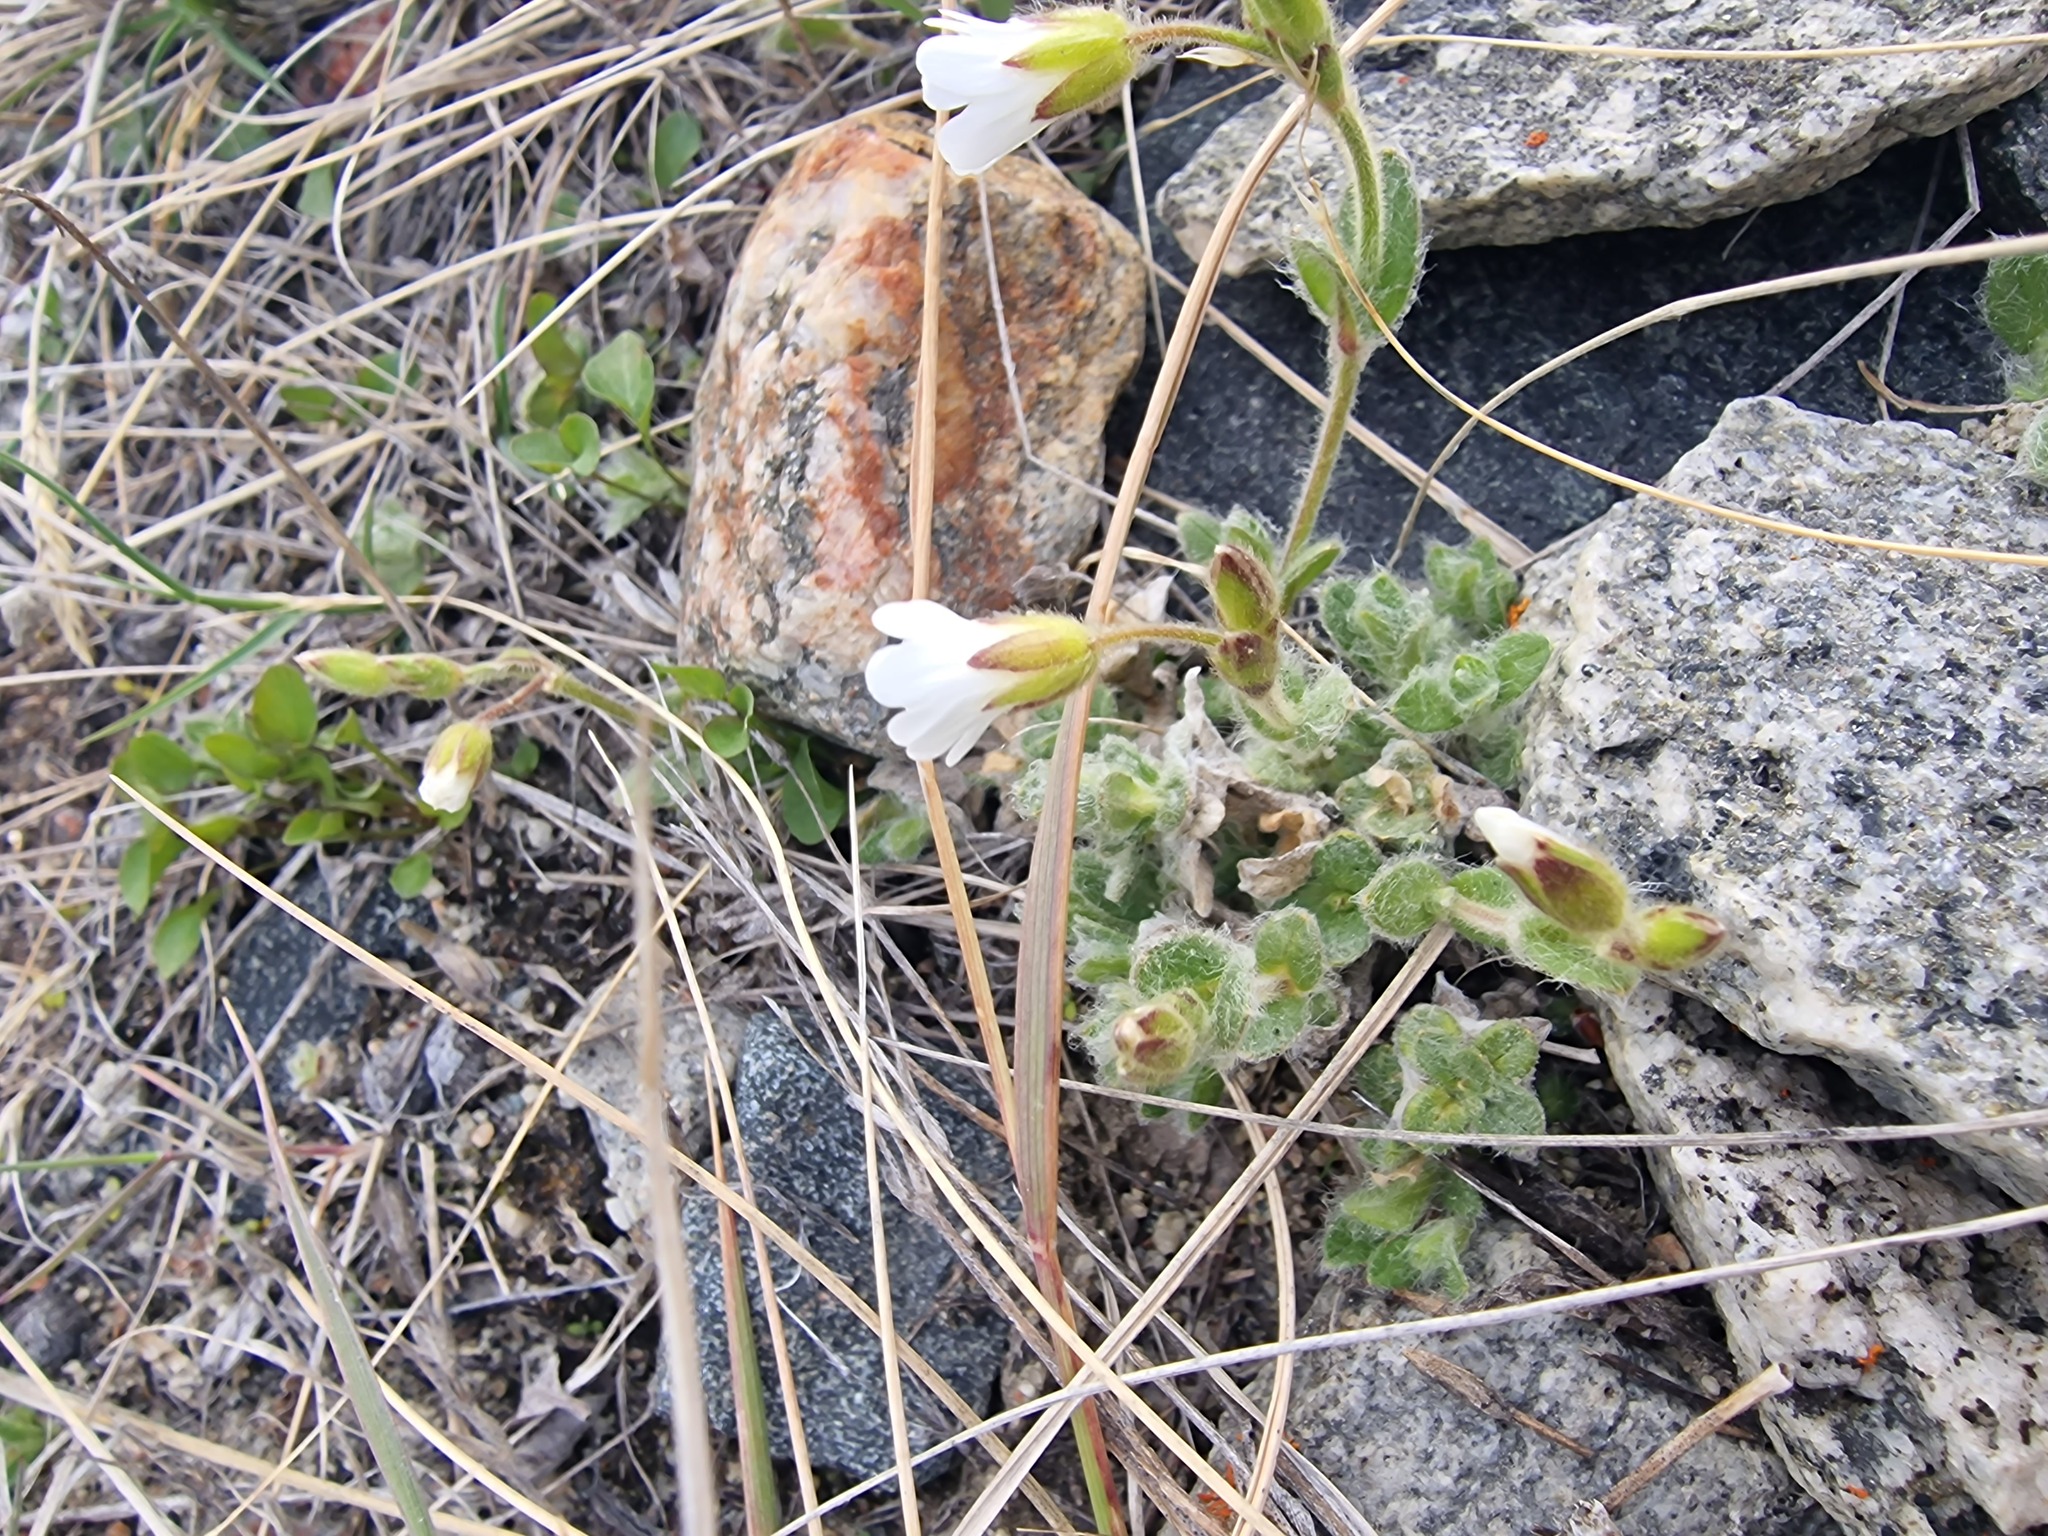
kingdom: Plantae
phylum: Tracheophyta
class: Magnoliopsida
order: Caryophyllales
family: Caryophyllaceae
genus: Cerastium
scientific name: Cerastium alpinum
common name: Alpine mouse-ear
